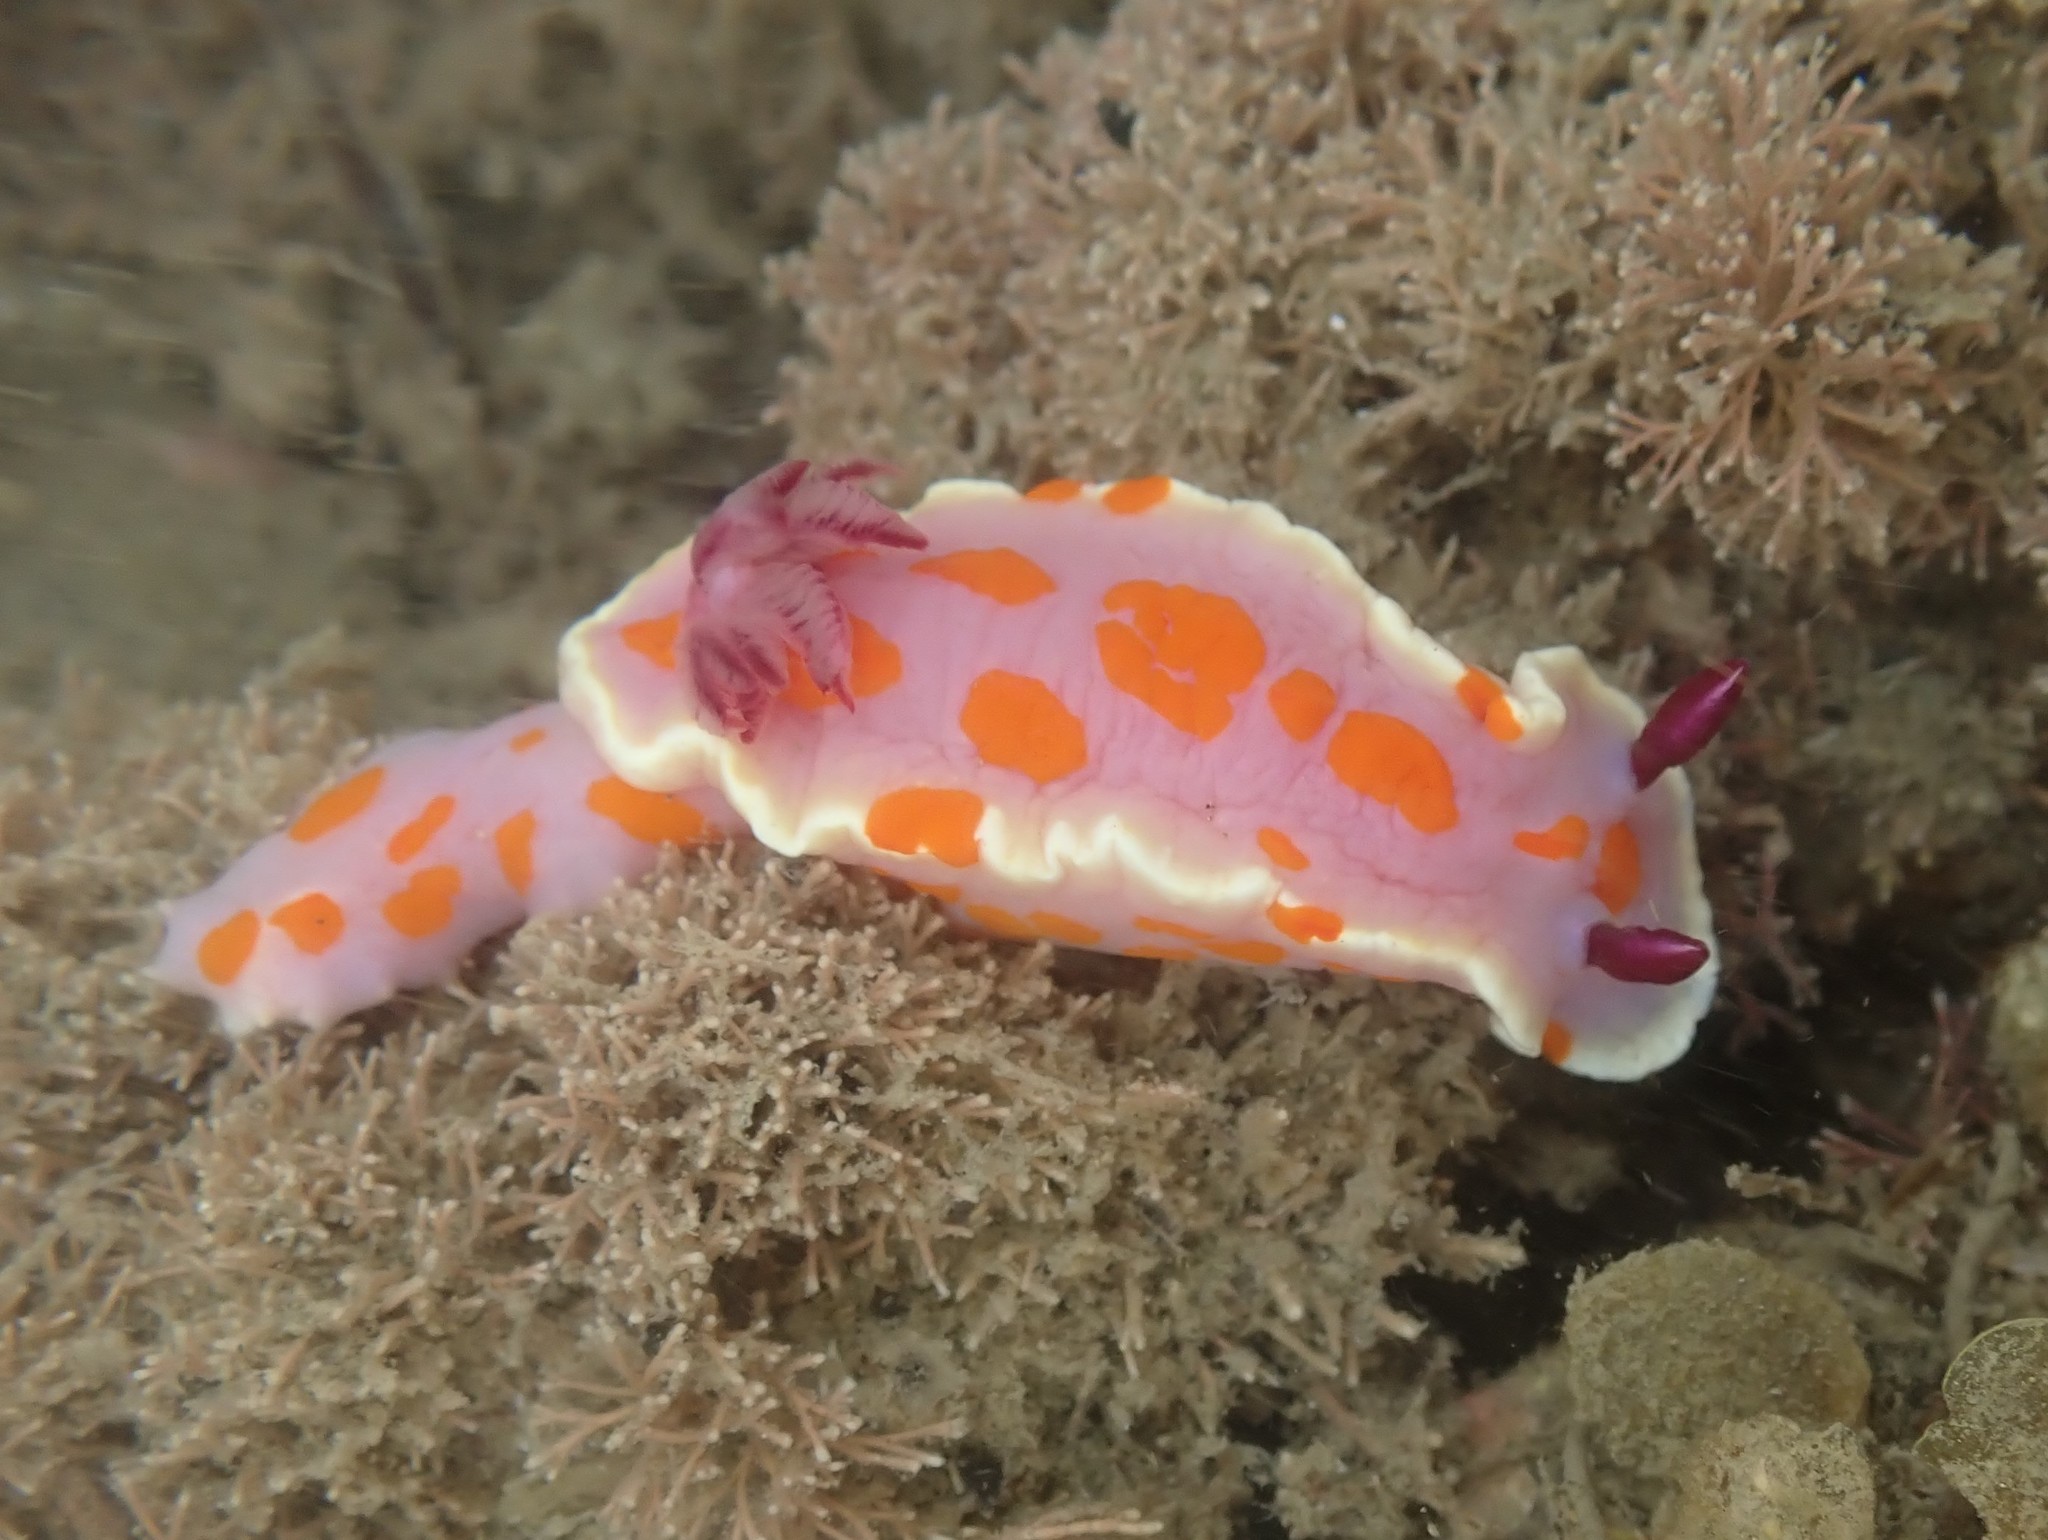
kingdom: Animalia
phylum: Mollusca
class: Gastropoda
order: Nudibranchia
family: Chromodorididae
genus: Ceratosoma
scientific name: Ceratosoma amoenum
